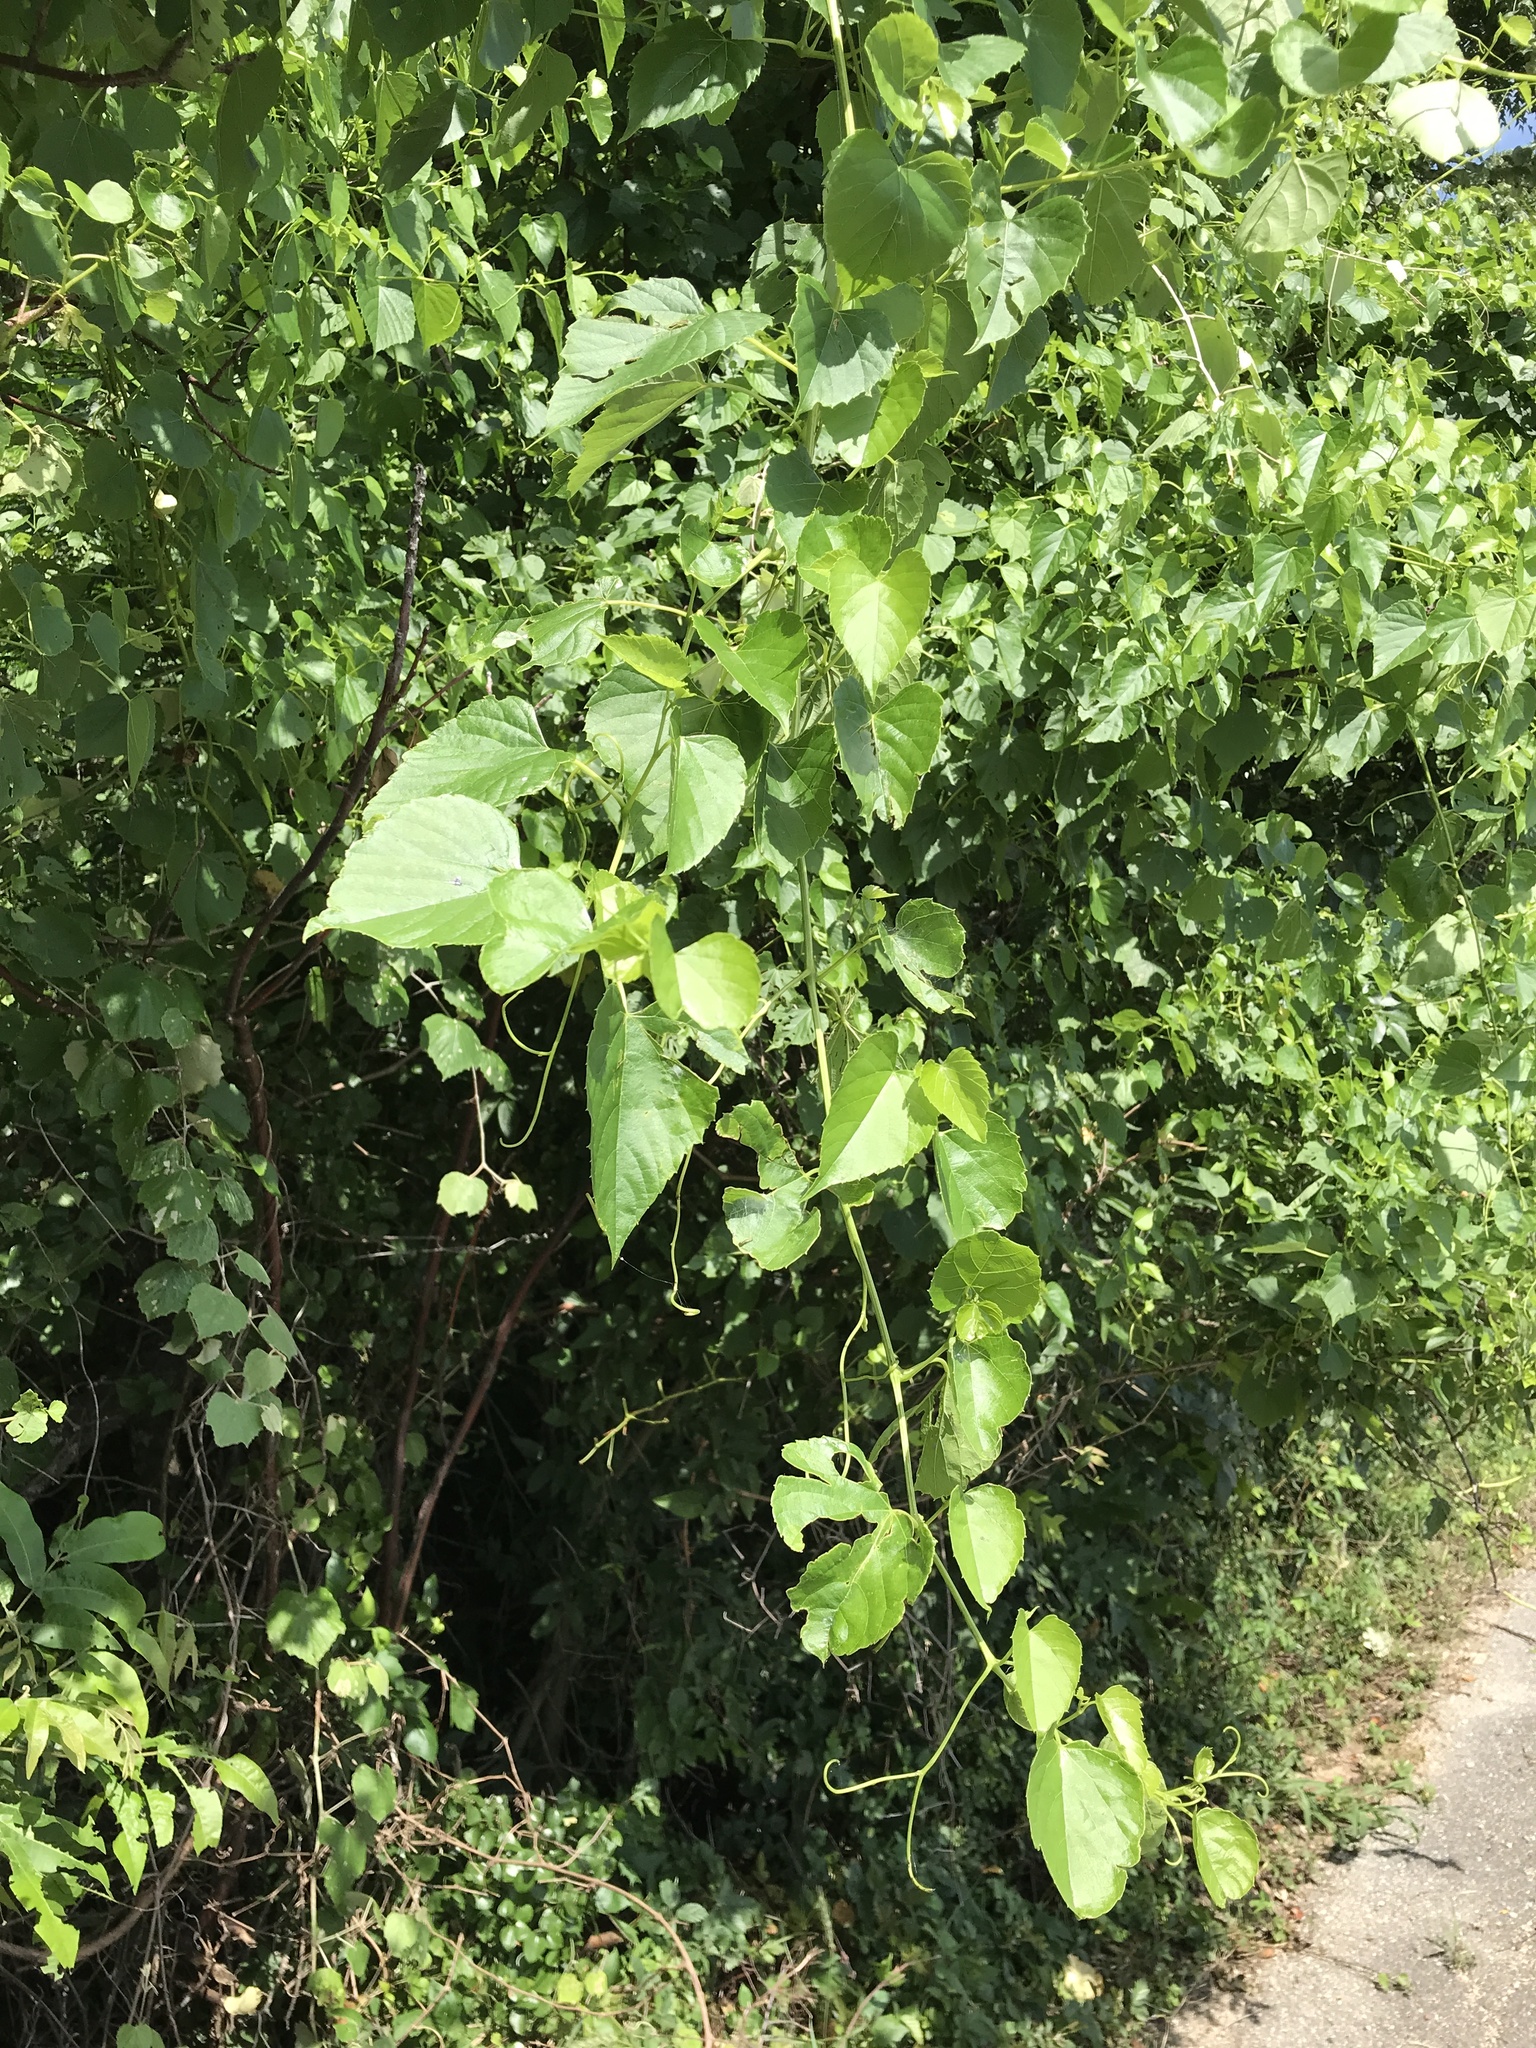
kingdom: Plantae
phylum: Tracheophyta
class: Magnoliopsida
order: Vitales
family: Vitaceae
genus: Ampelopsis
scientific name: Ampelopsis cordata
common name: Heart-leaf ampelopsis
